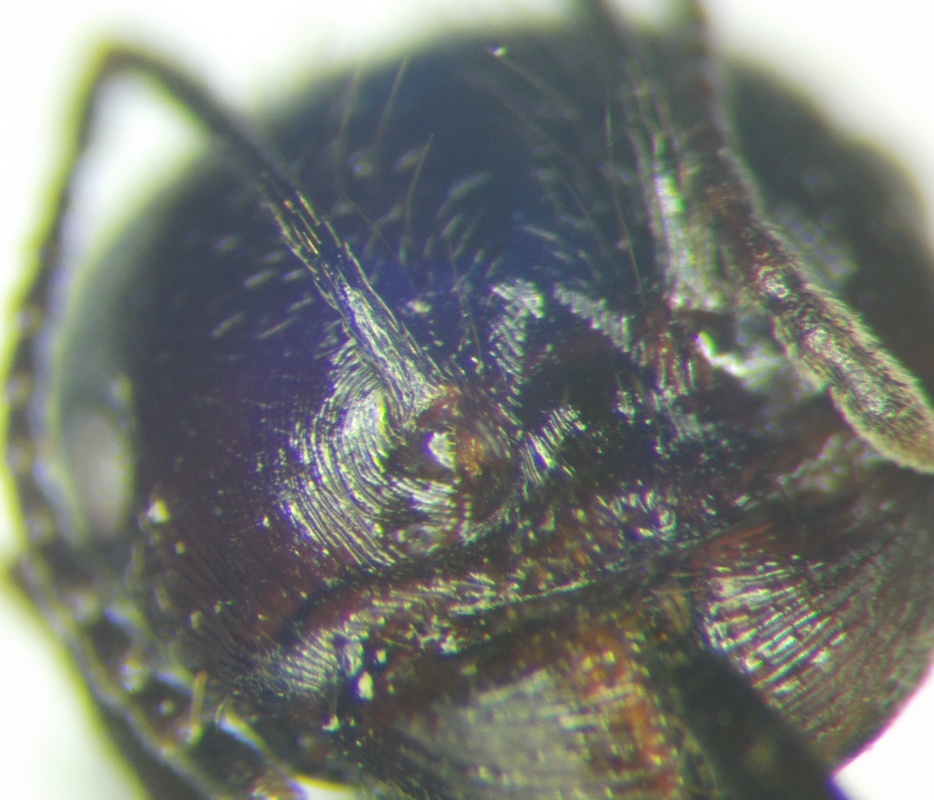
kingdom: Animalia
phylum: Arthropoda
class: Insecta
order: Hymenoptera
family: Formicidae
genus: Messor
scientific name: Messor structor
